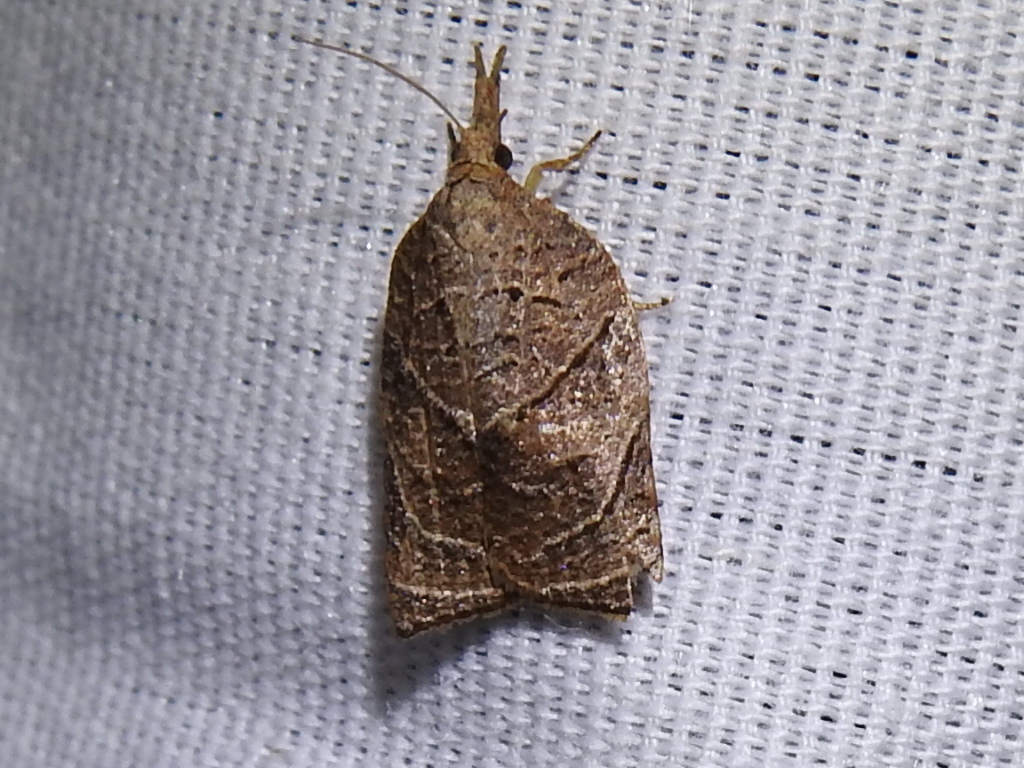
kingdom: Animalia
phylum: Arthropoda
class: Insecta
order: Lepidoptera
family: Tortricidae
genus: Platynota
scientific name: Platynota rostrana
